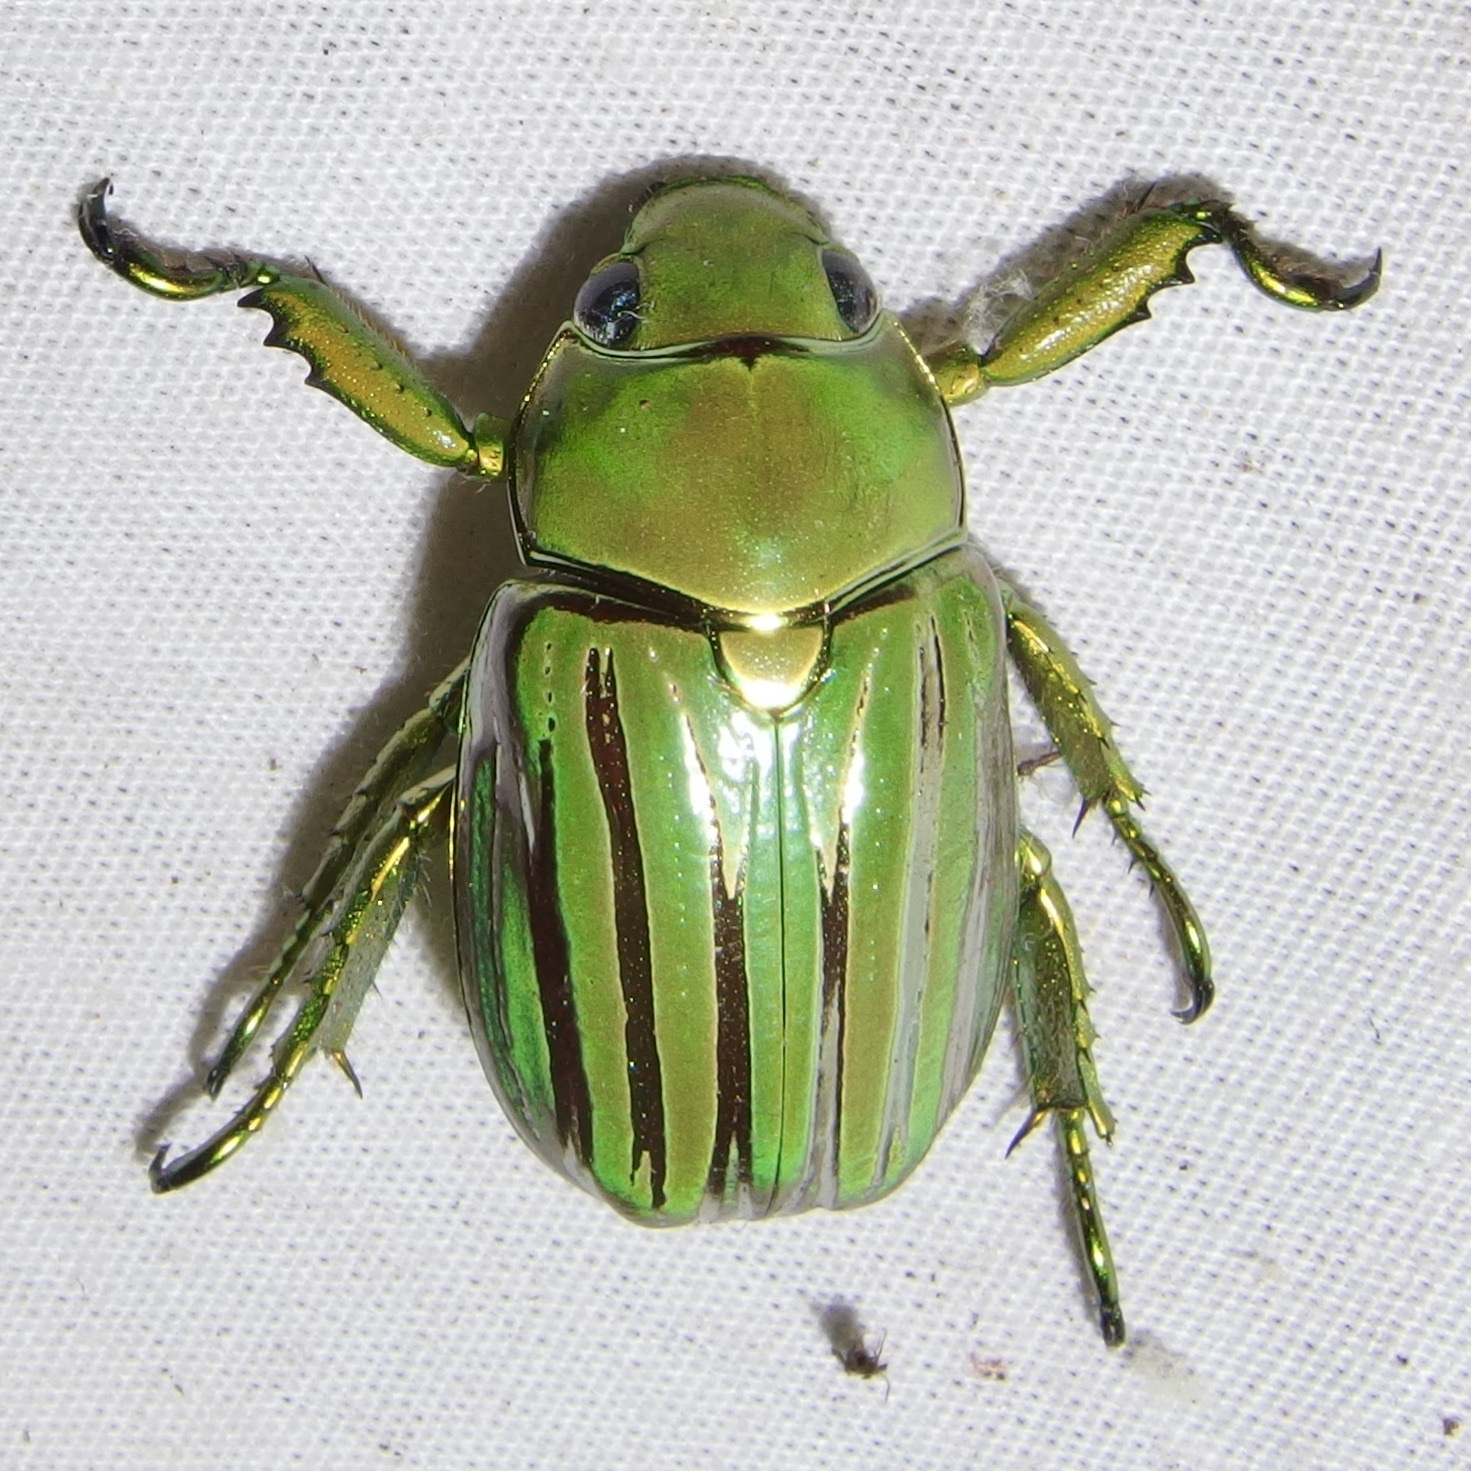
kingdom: Animalia
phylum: Arthropoda
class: Insecta
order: Coleoptera
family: Scarabaeidae
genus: Chrysina
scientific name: Chrysina gloriosa
